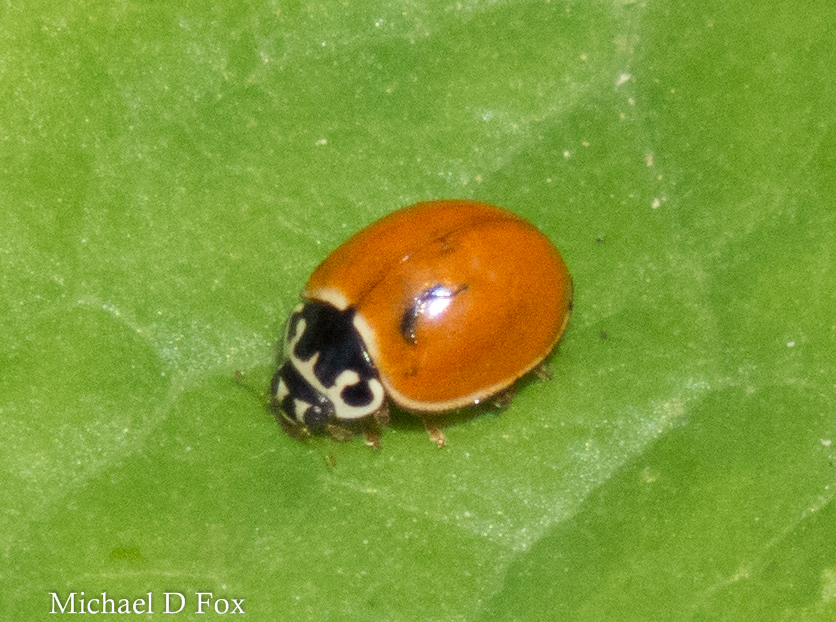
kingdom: Animalia
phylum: Arthropoda
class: Insecta
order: Coleoptera
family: Coccinellidae
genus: Cycloneda
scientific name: Cycloneda munda
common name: Polished lady beetle
